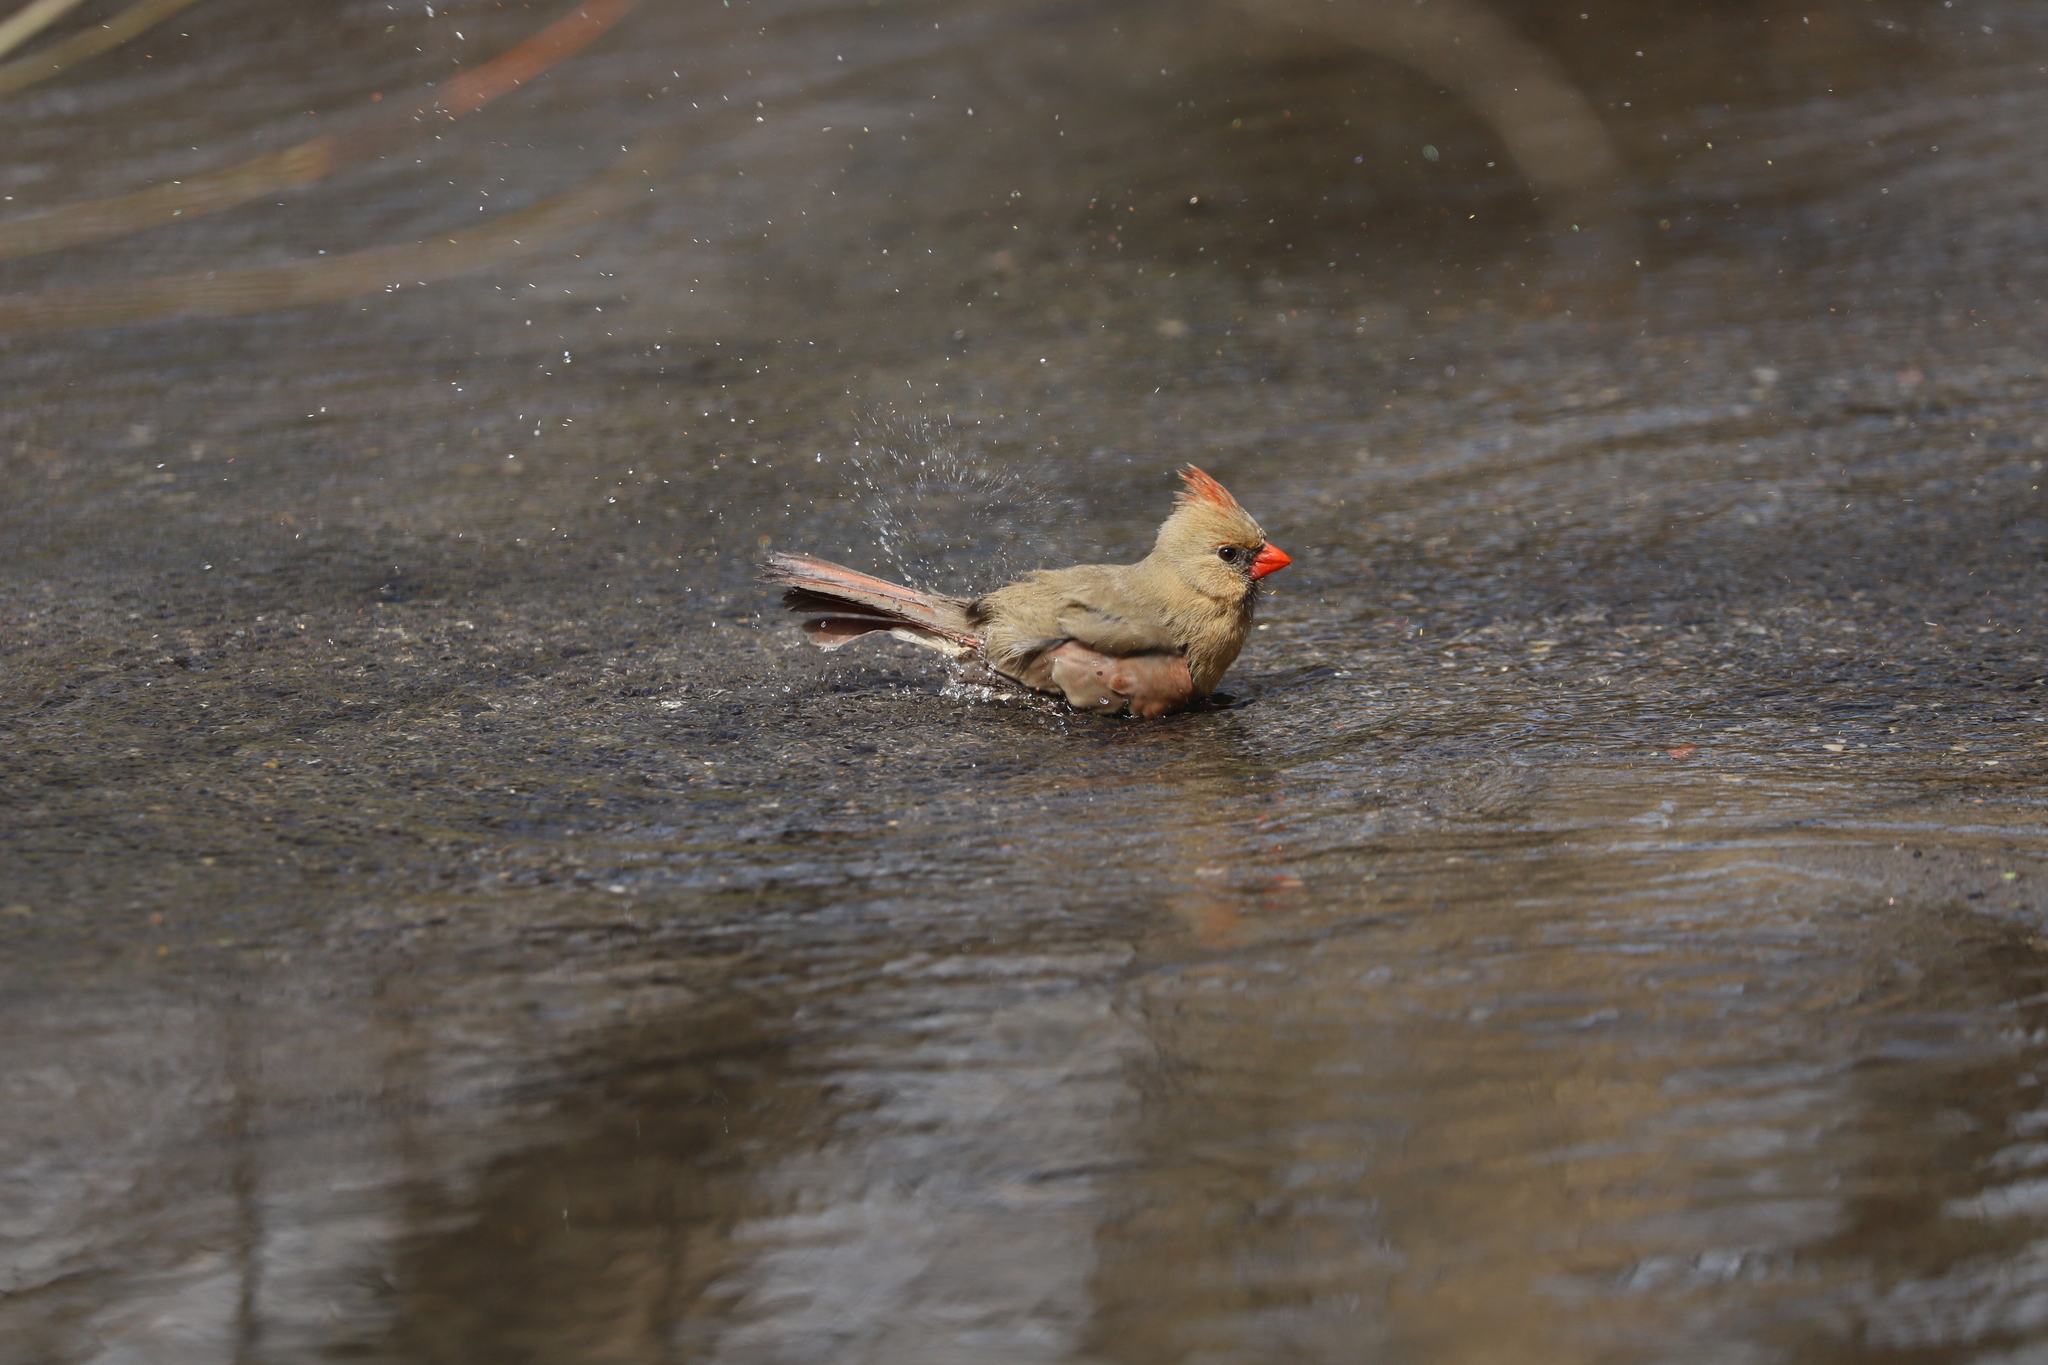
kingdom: Animalia
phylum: Chordata
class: Aves
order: Passeriformes
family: Cardinalidae
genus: Cardinalis
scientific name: Cardinalis cardinalis
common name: Northern cardinal
